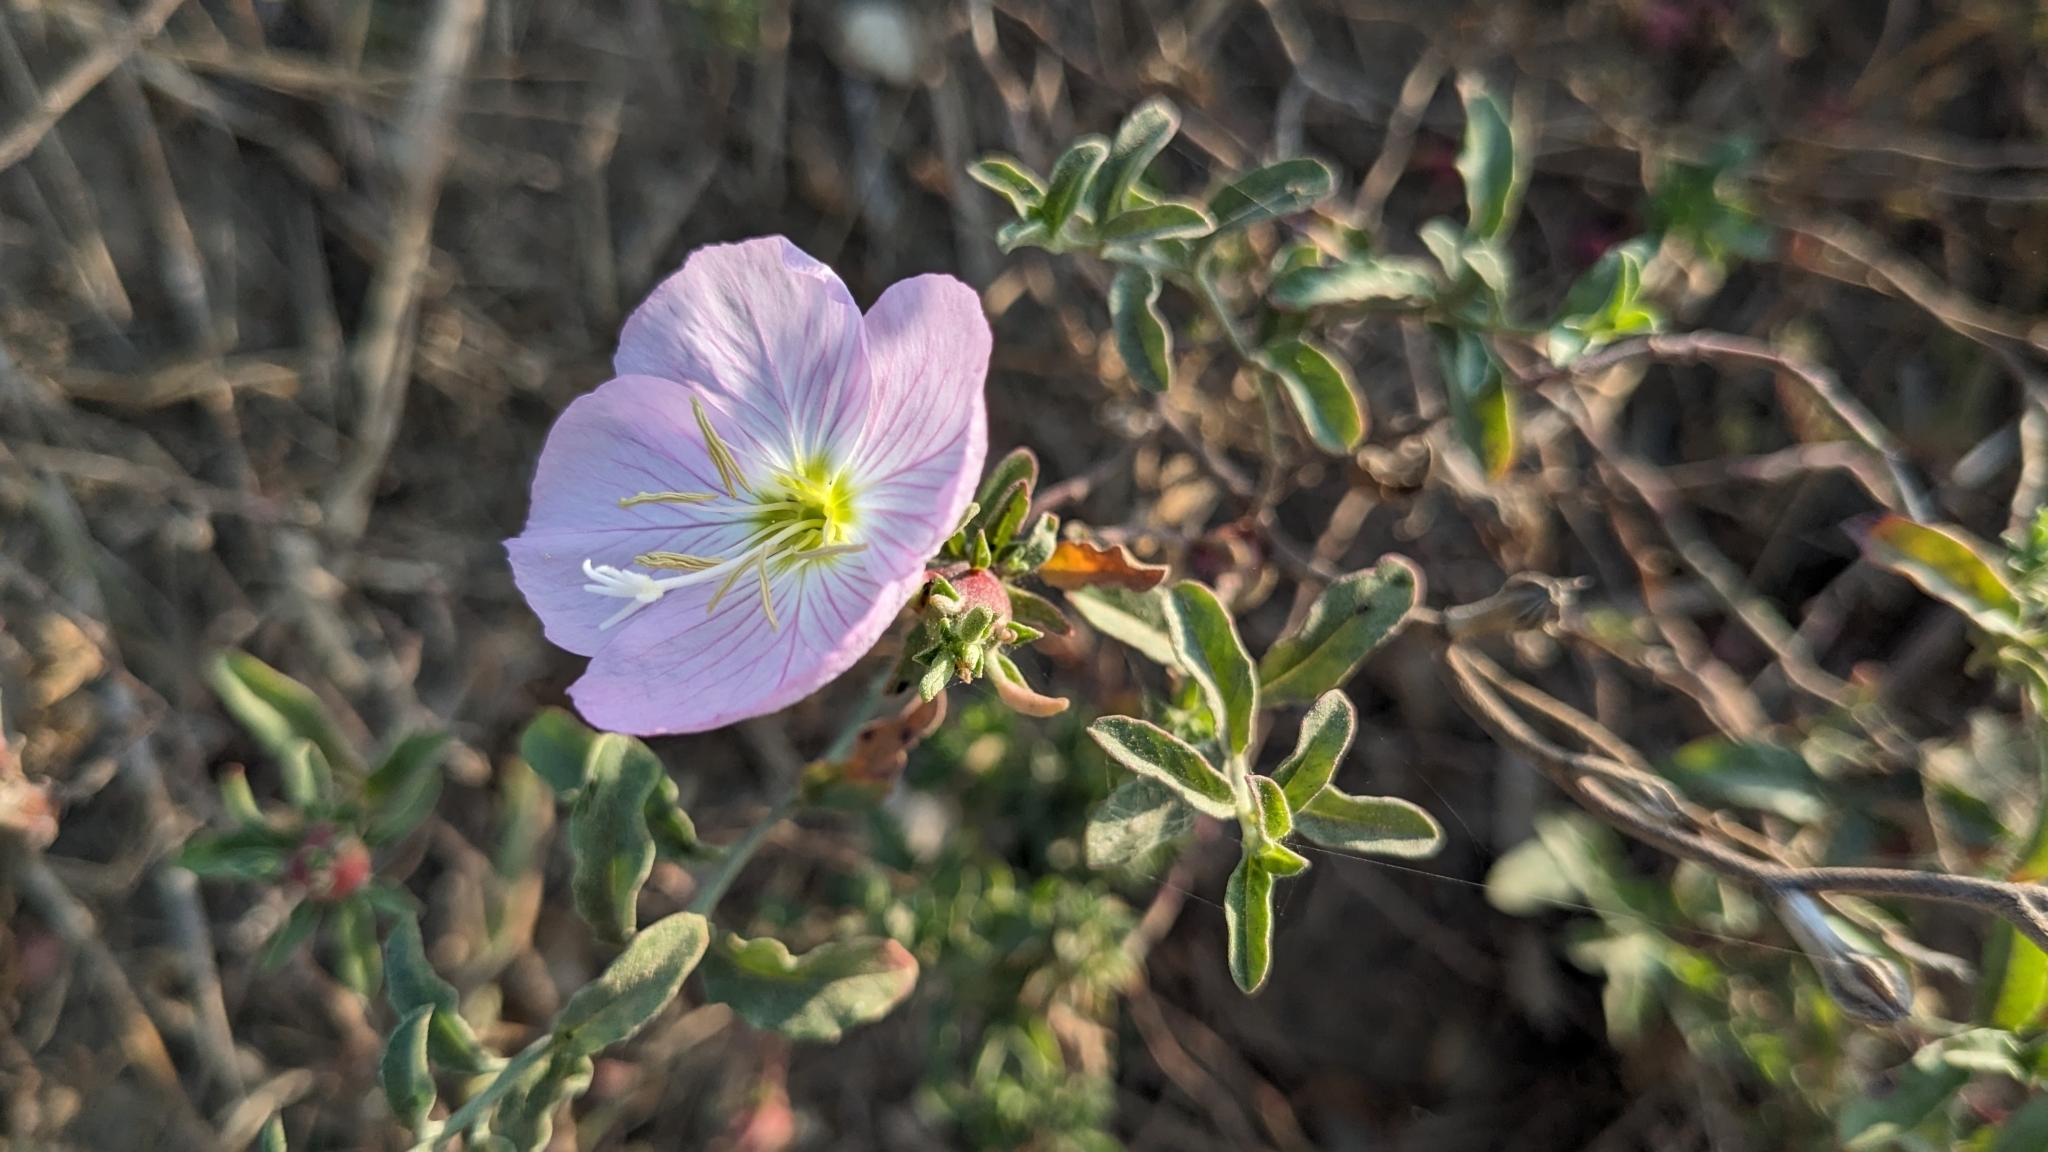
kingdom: Plantae
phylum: Tracheophyta
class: Magnoliopsida
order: Myrtales
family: Onagraceae
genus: Oenothera
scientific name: Oenothera speciosa
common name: White evening-primrose
